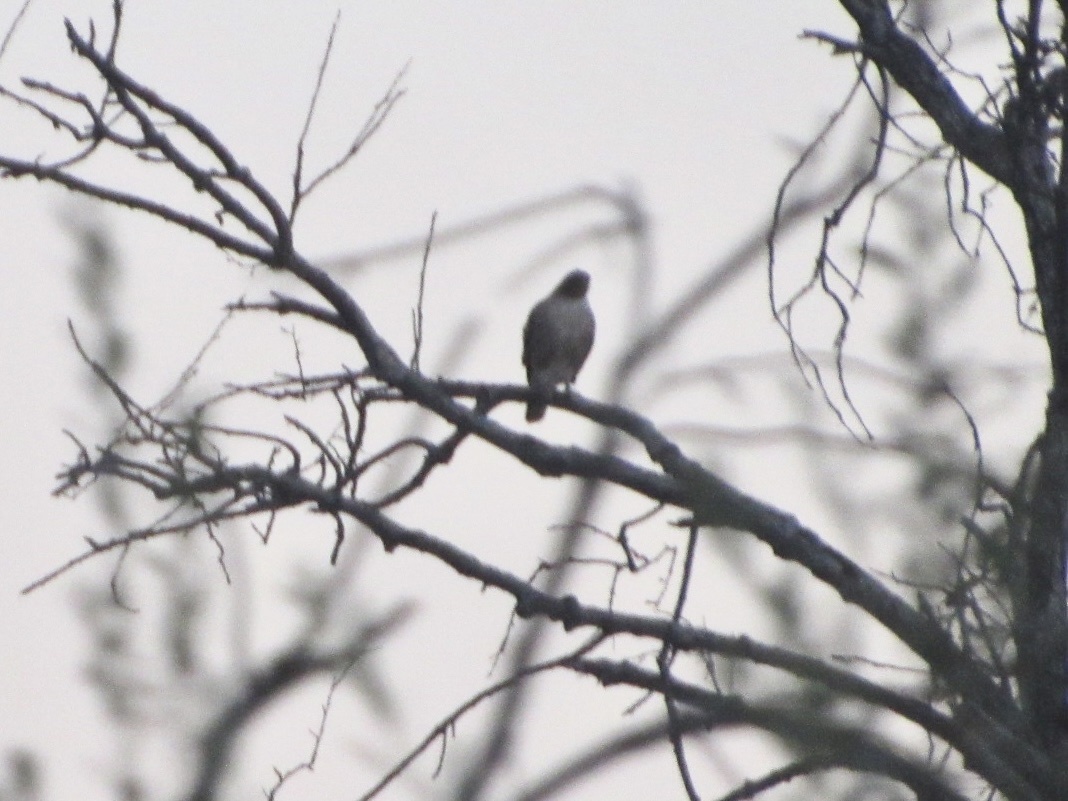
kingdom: Animalia
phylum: Chordata
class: Aves
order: Accipitriformes
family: Accipitridae
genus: Buteo
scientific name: Buteo jamaicensis
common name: Red-tailed hawk
